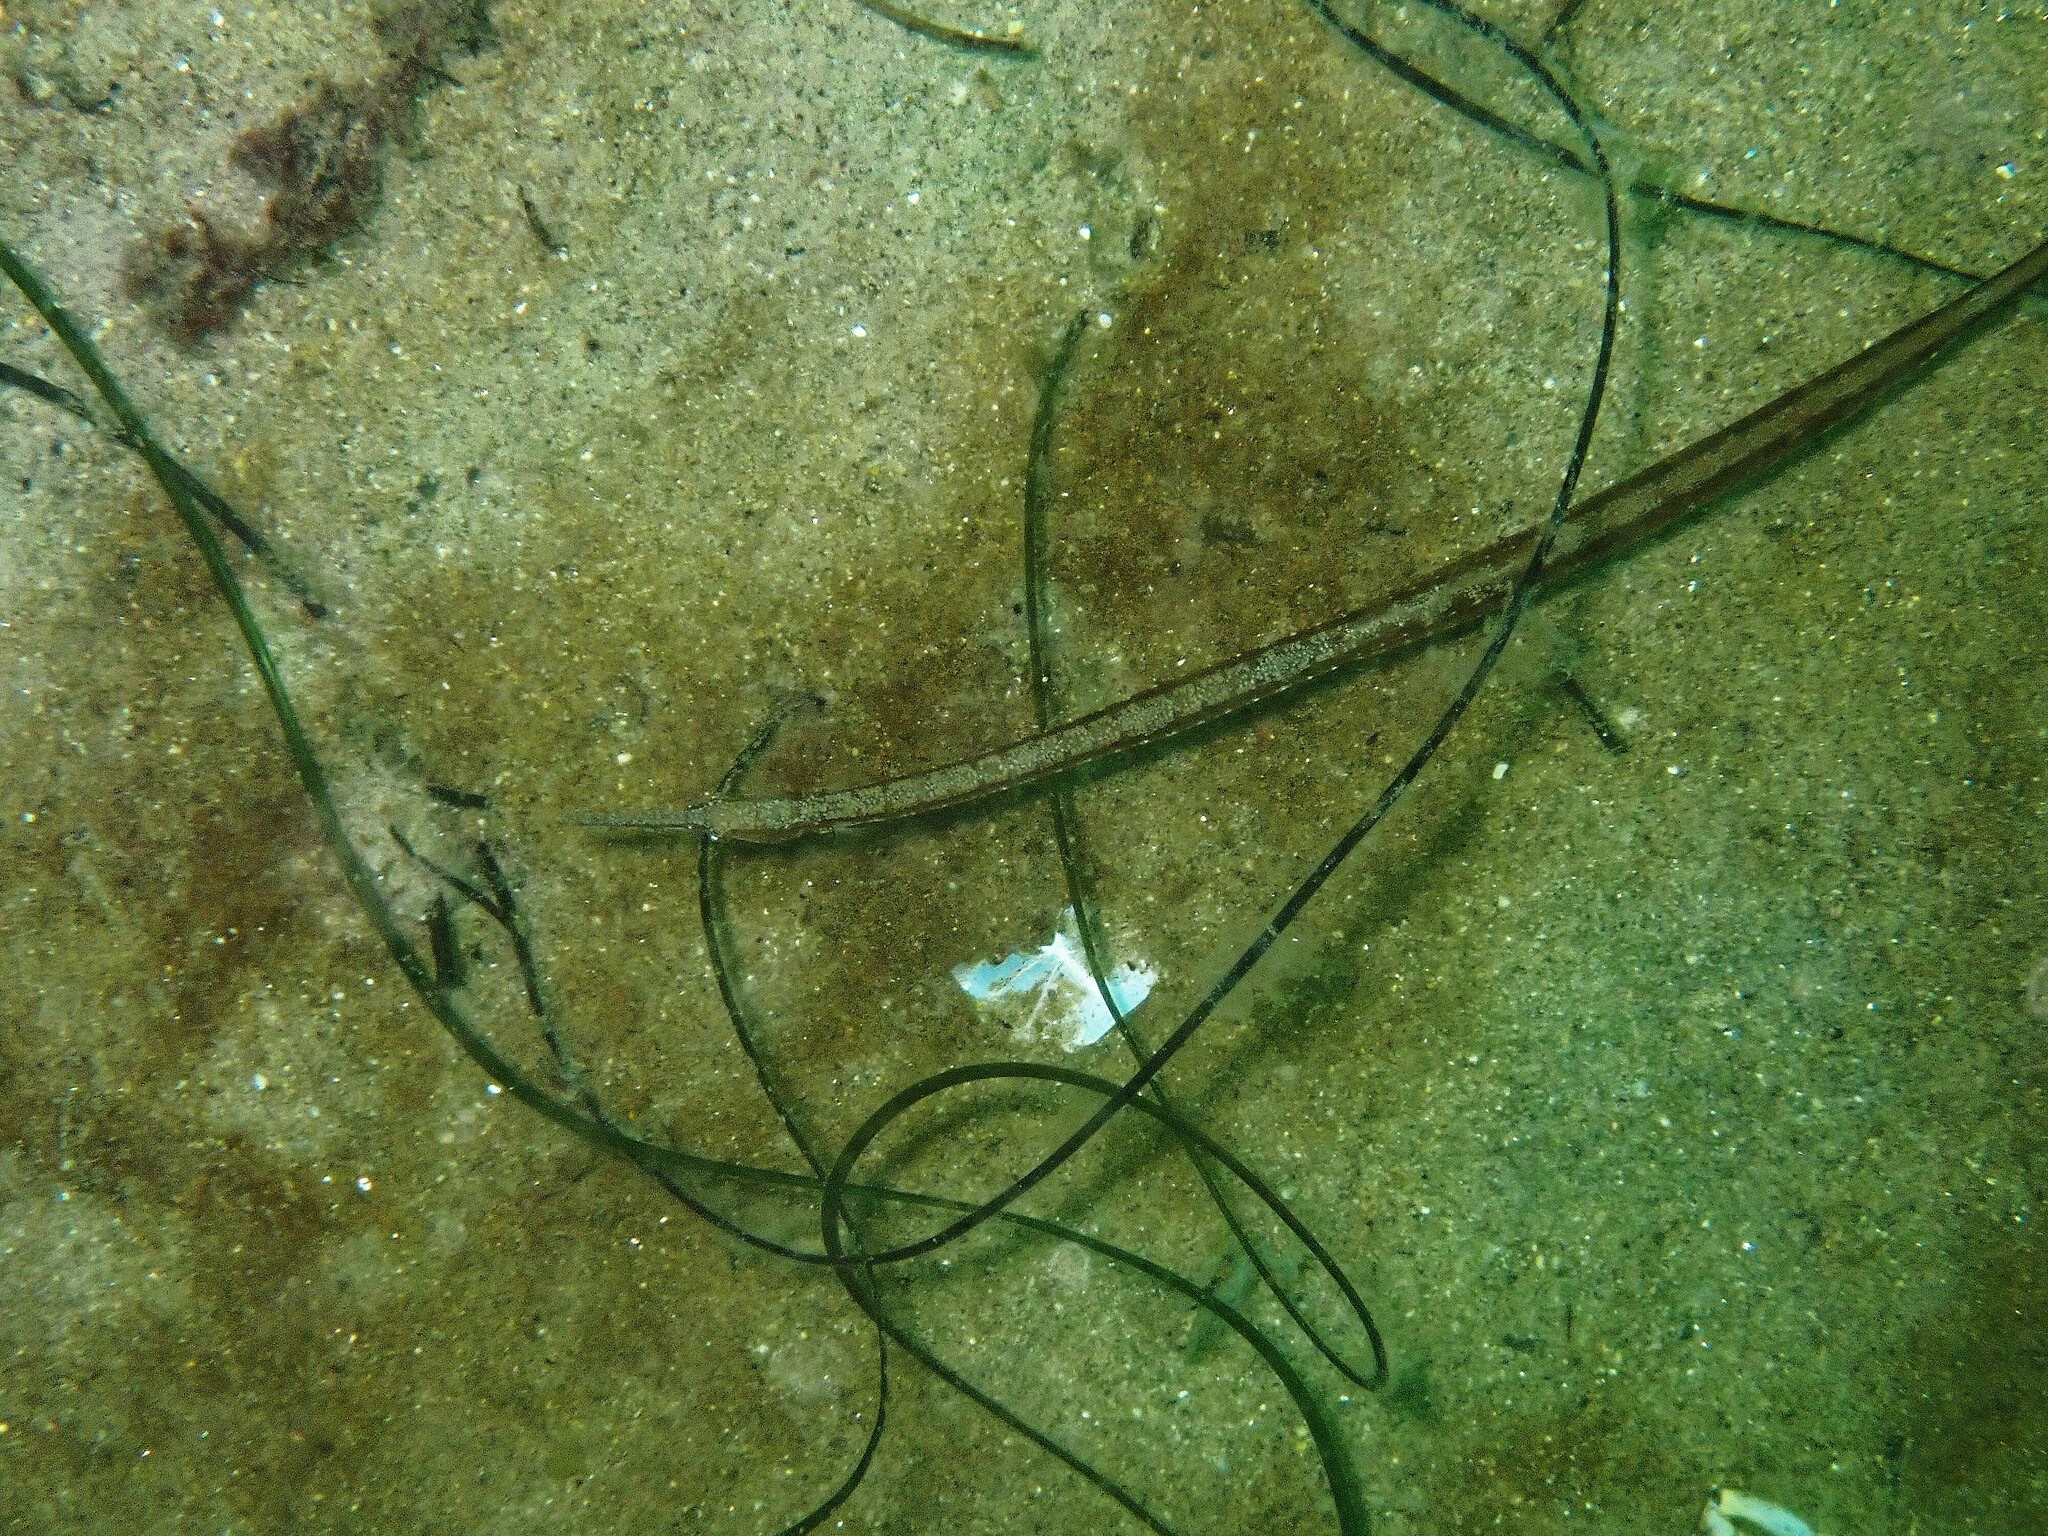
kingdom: Animalia
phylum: Chordata
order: Syngnathiformes
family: Syngnathidae
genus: Syngnathus
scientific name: Syngnathus californiensis
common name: Great pipefish
